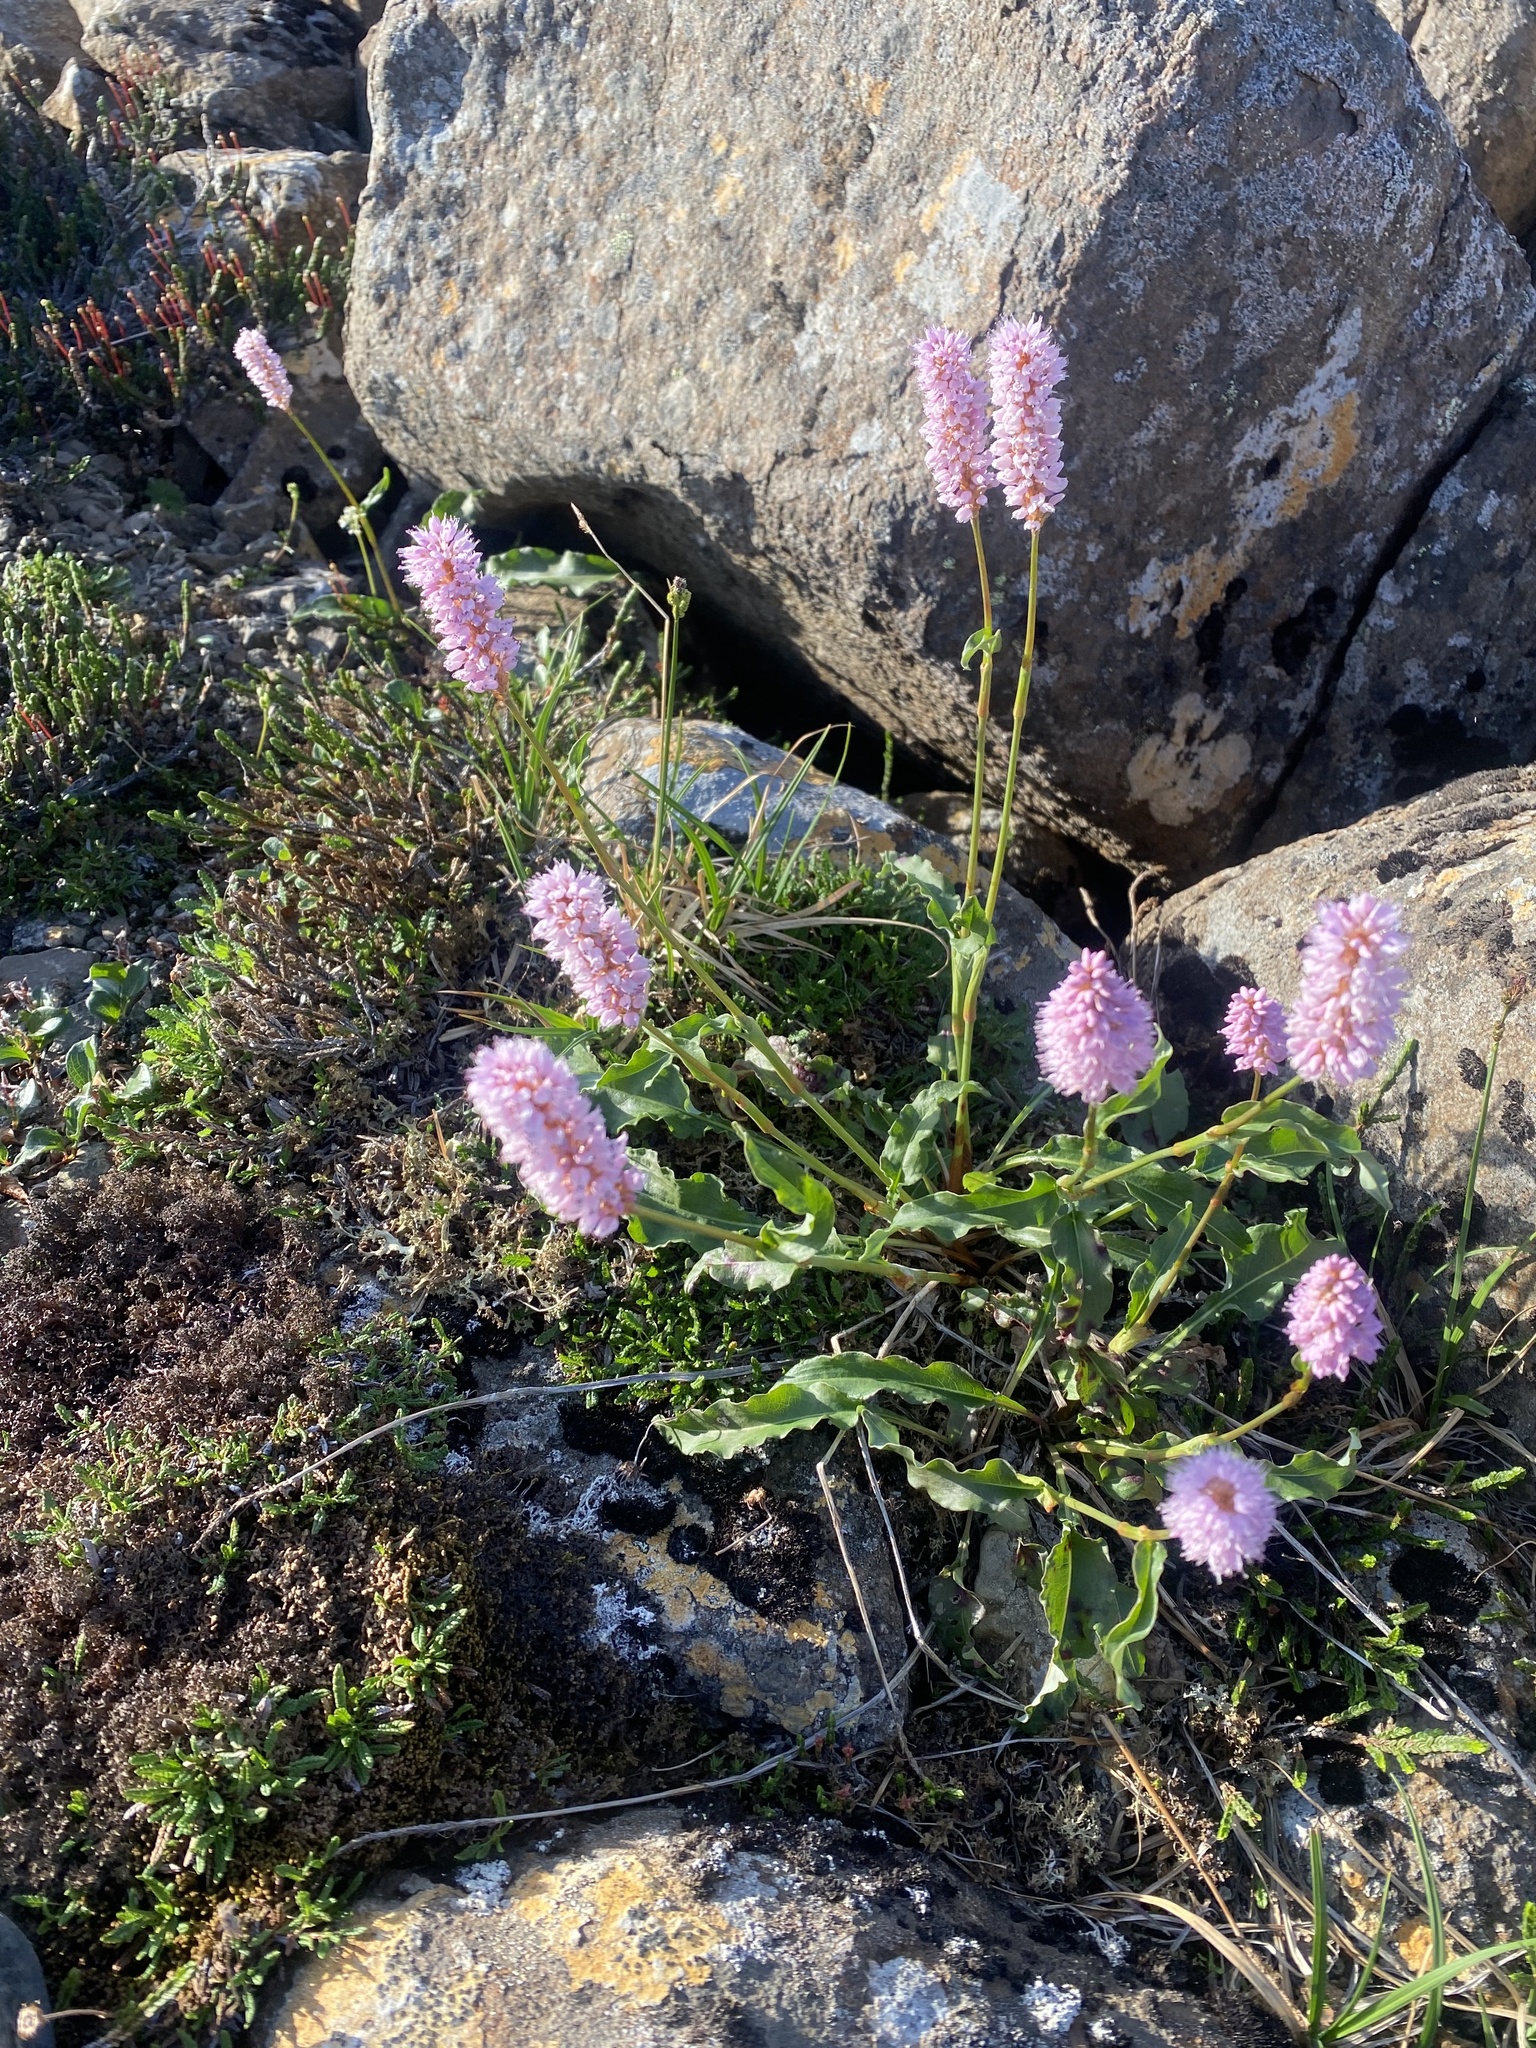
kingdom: Plantae
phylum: Tracheophyta
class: Magnoliopsida
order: Caryophyllales
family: Polygonaceae
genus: Bistorta
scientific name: Bistorta officinalis
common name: Common bistort
